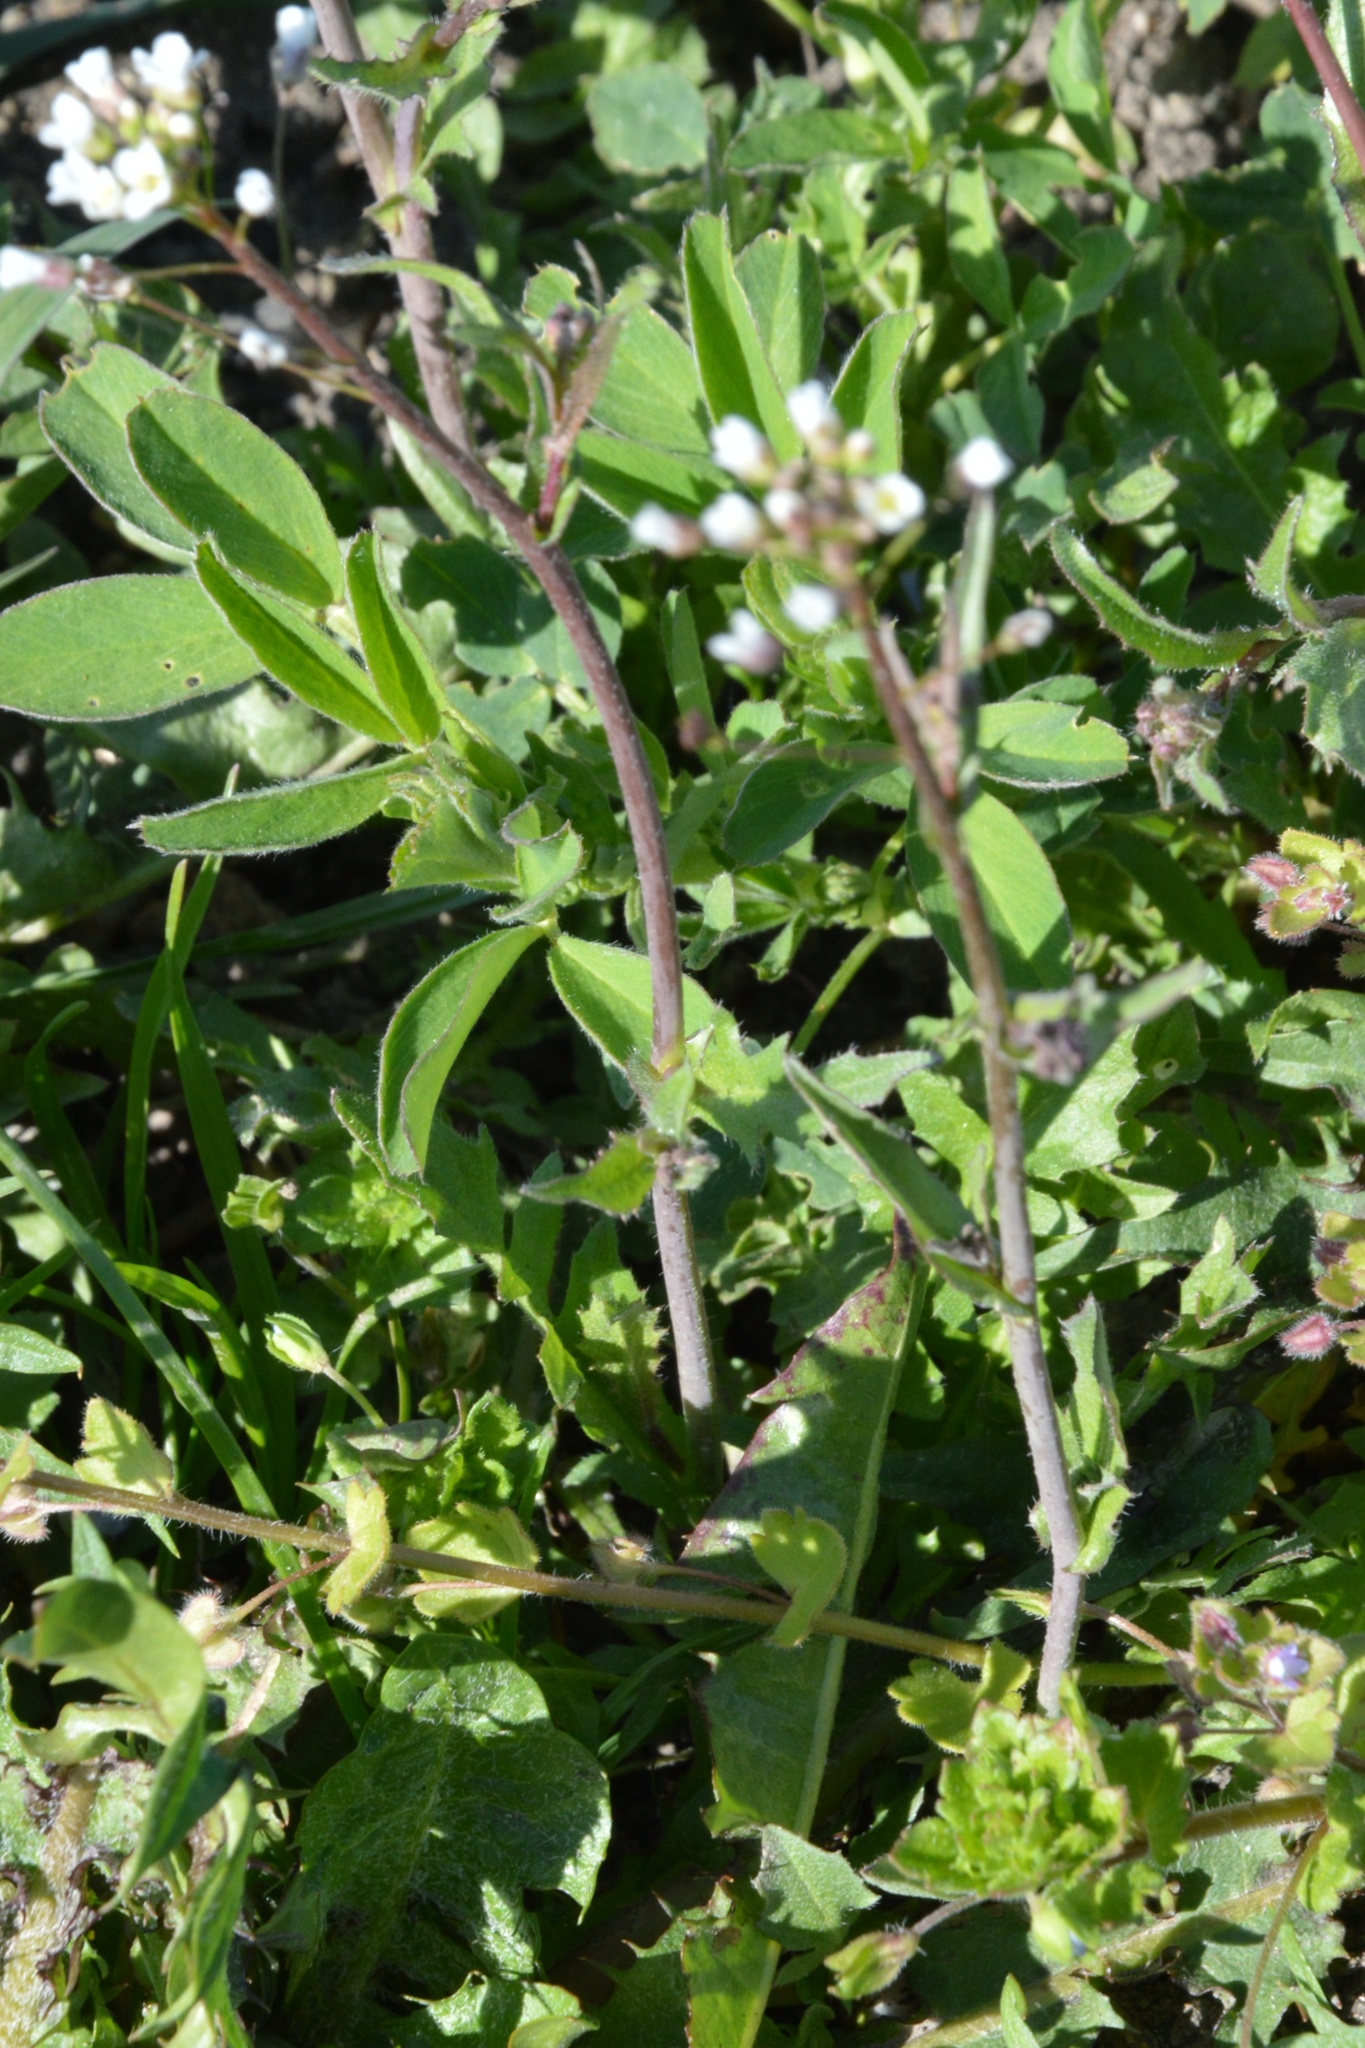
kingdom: Plantae
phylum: Tracheophyta
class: Magnoliopsida
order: Brassicales
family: Brassicaceae
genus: Capsella
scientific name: Capsella bursa-pastoris
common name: Shepherd's purse
